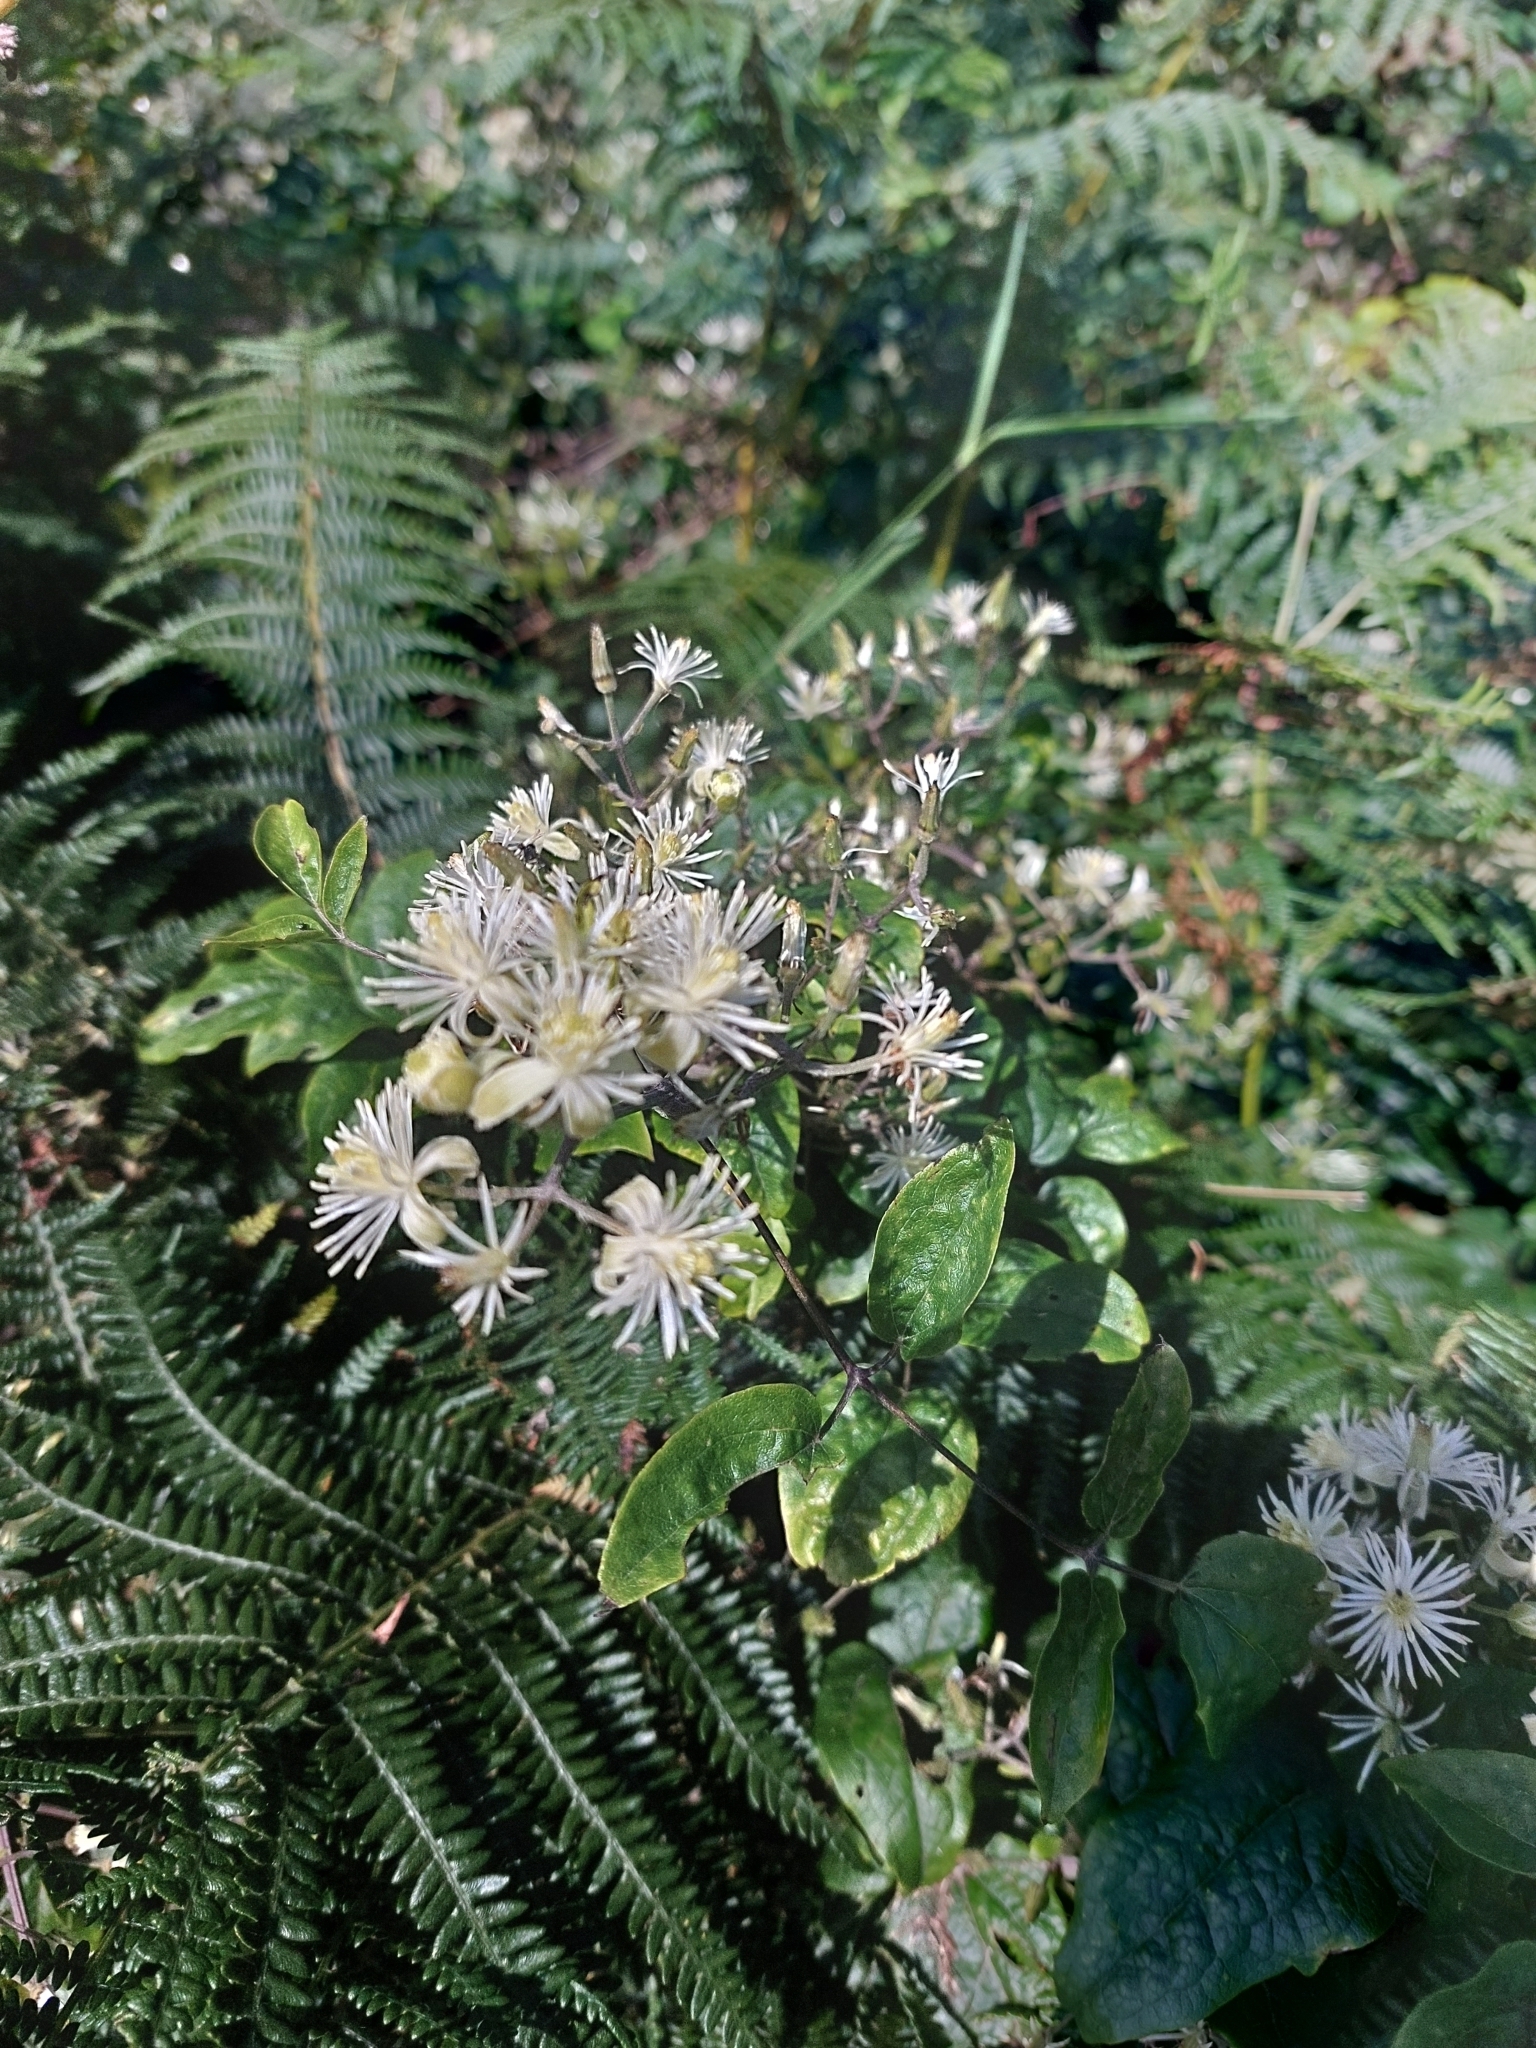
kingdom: Plantae
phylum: Tracheophyta
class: Magnoliopsida
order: Ranunculales
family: Ranunculaceae
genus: Clematis
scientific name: Clematis vitalba
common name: Evergreen clematis
